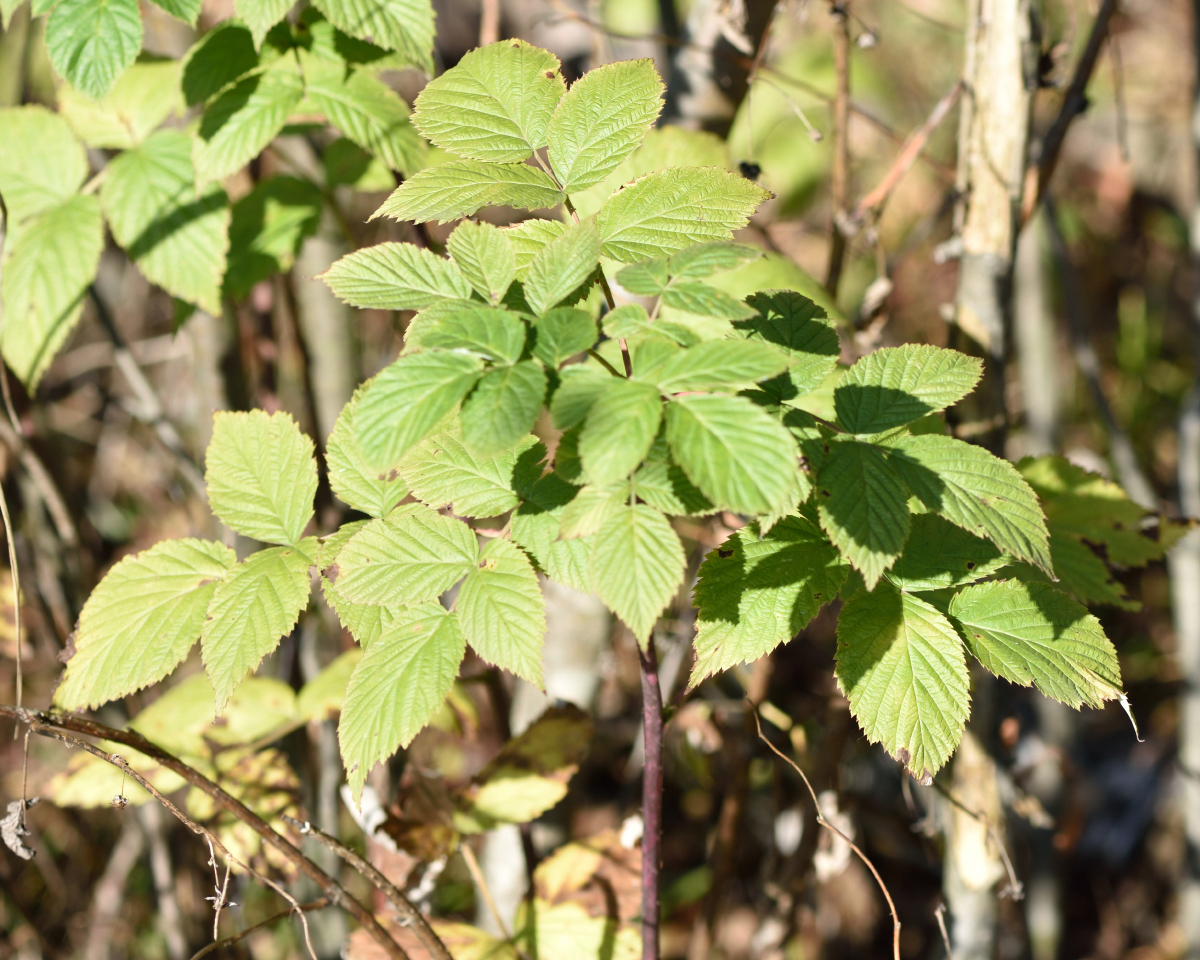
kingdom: Plantae
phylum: Tracheophyta
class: Magnoliopsida
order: Rosales
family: Rosaceae
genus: Rubus
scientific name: Rubus idaeus
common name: Raspberry
